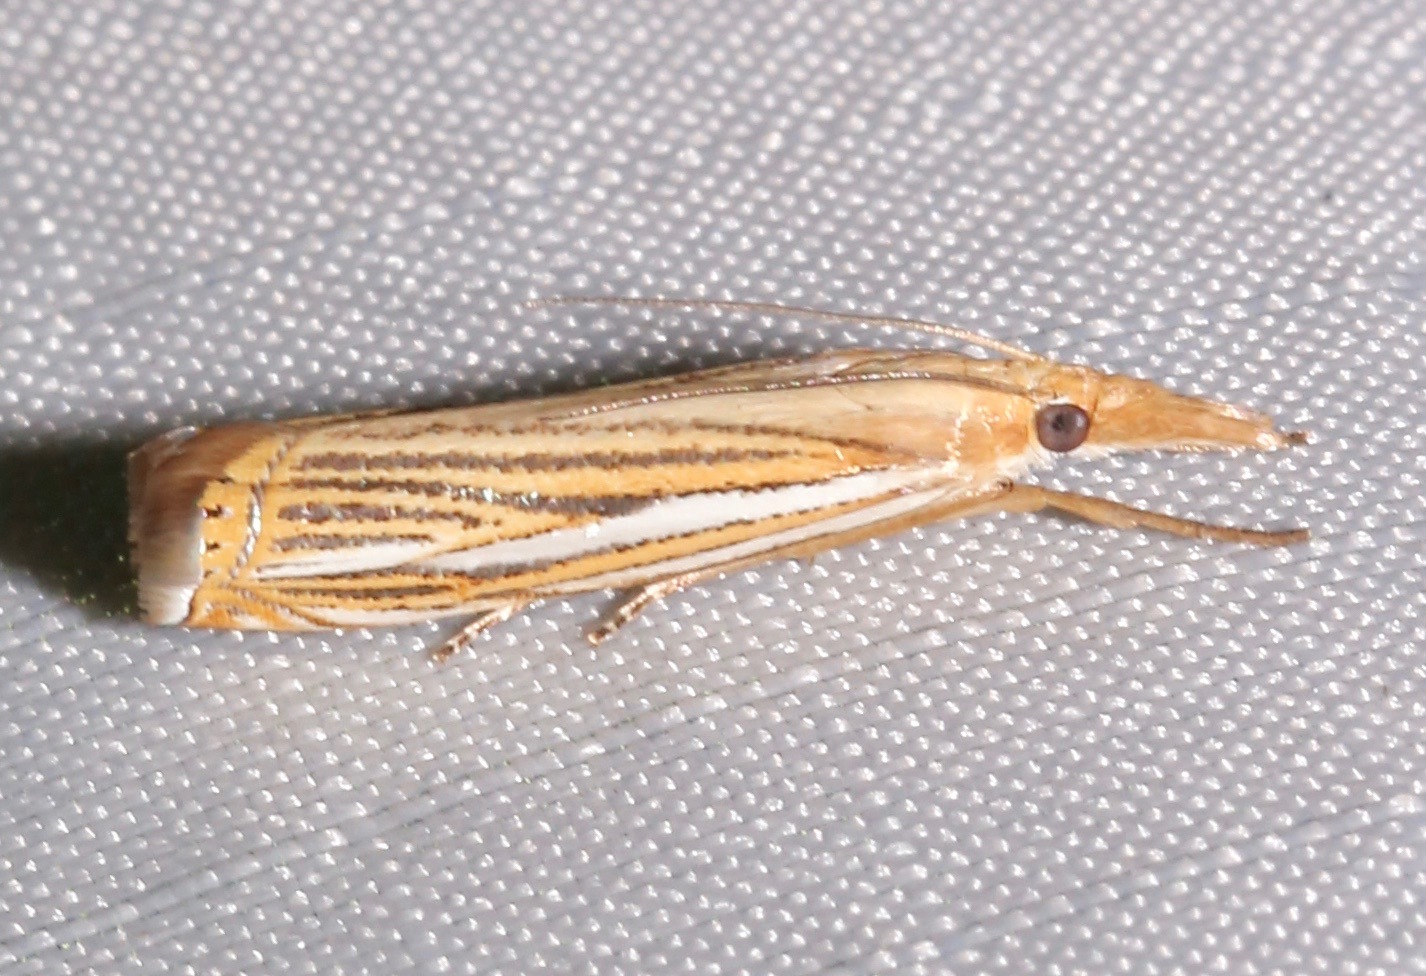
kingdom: Animalia
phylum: Arthropoda
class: Insecta
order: Lepidoptera
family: Crambidae
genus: Crambus
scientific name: Crambus multilinellus
